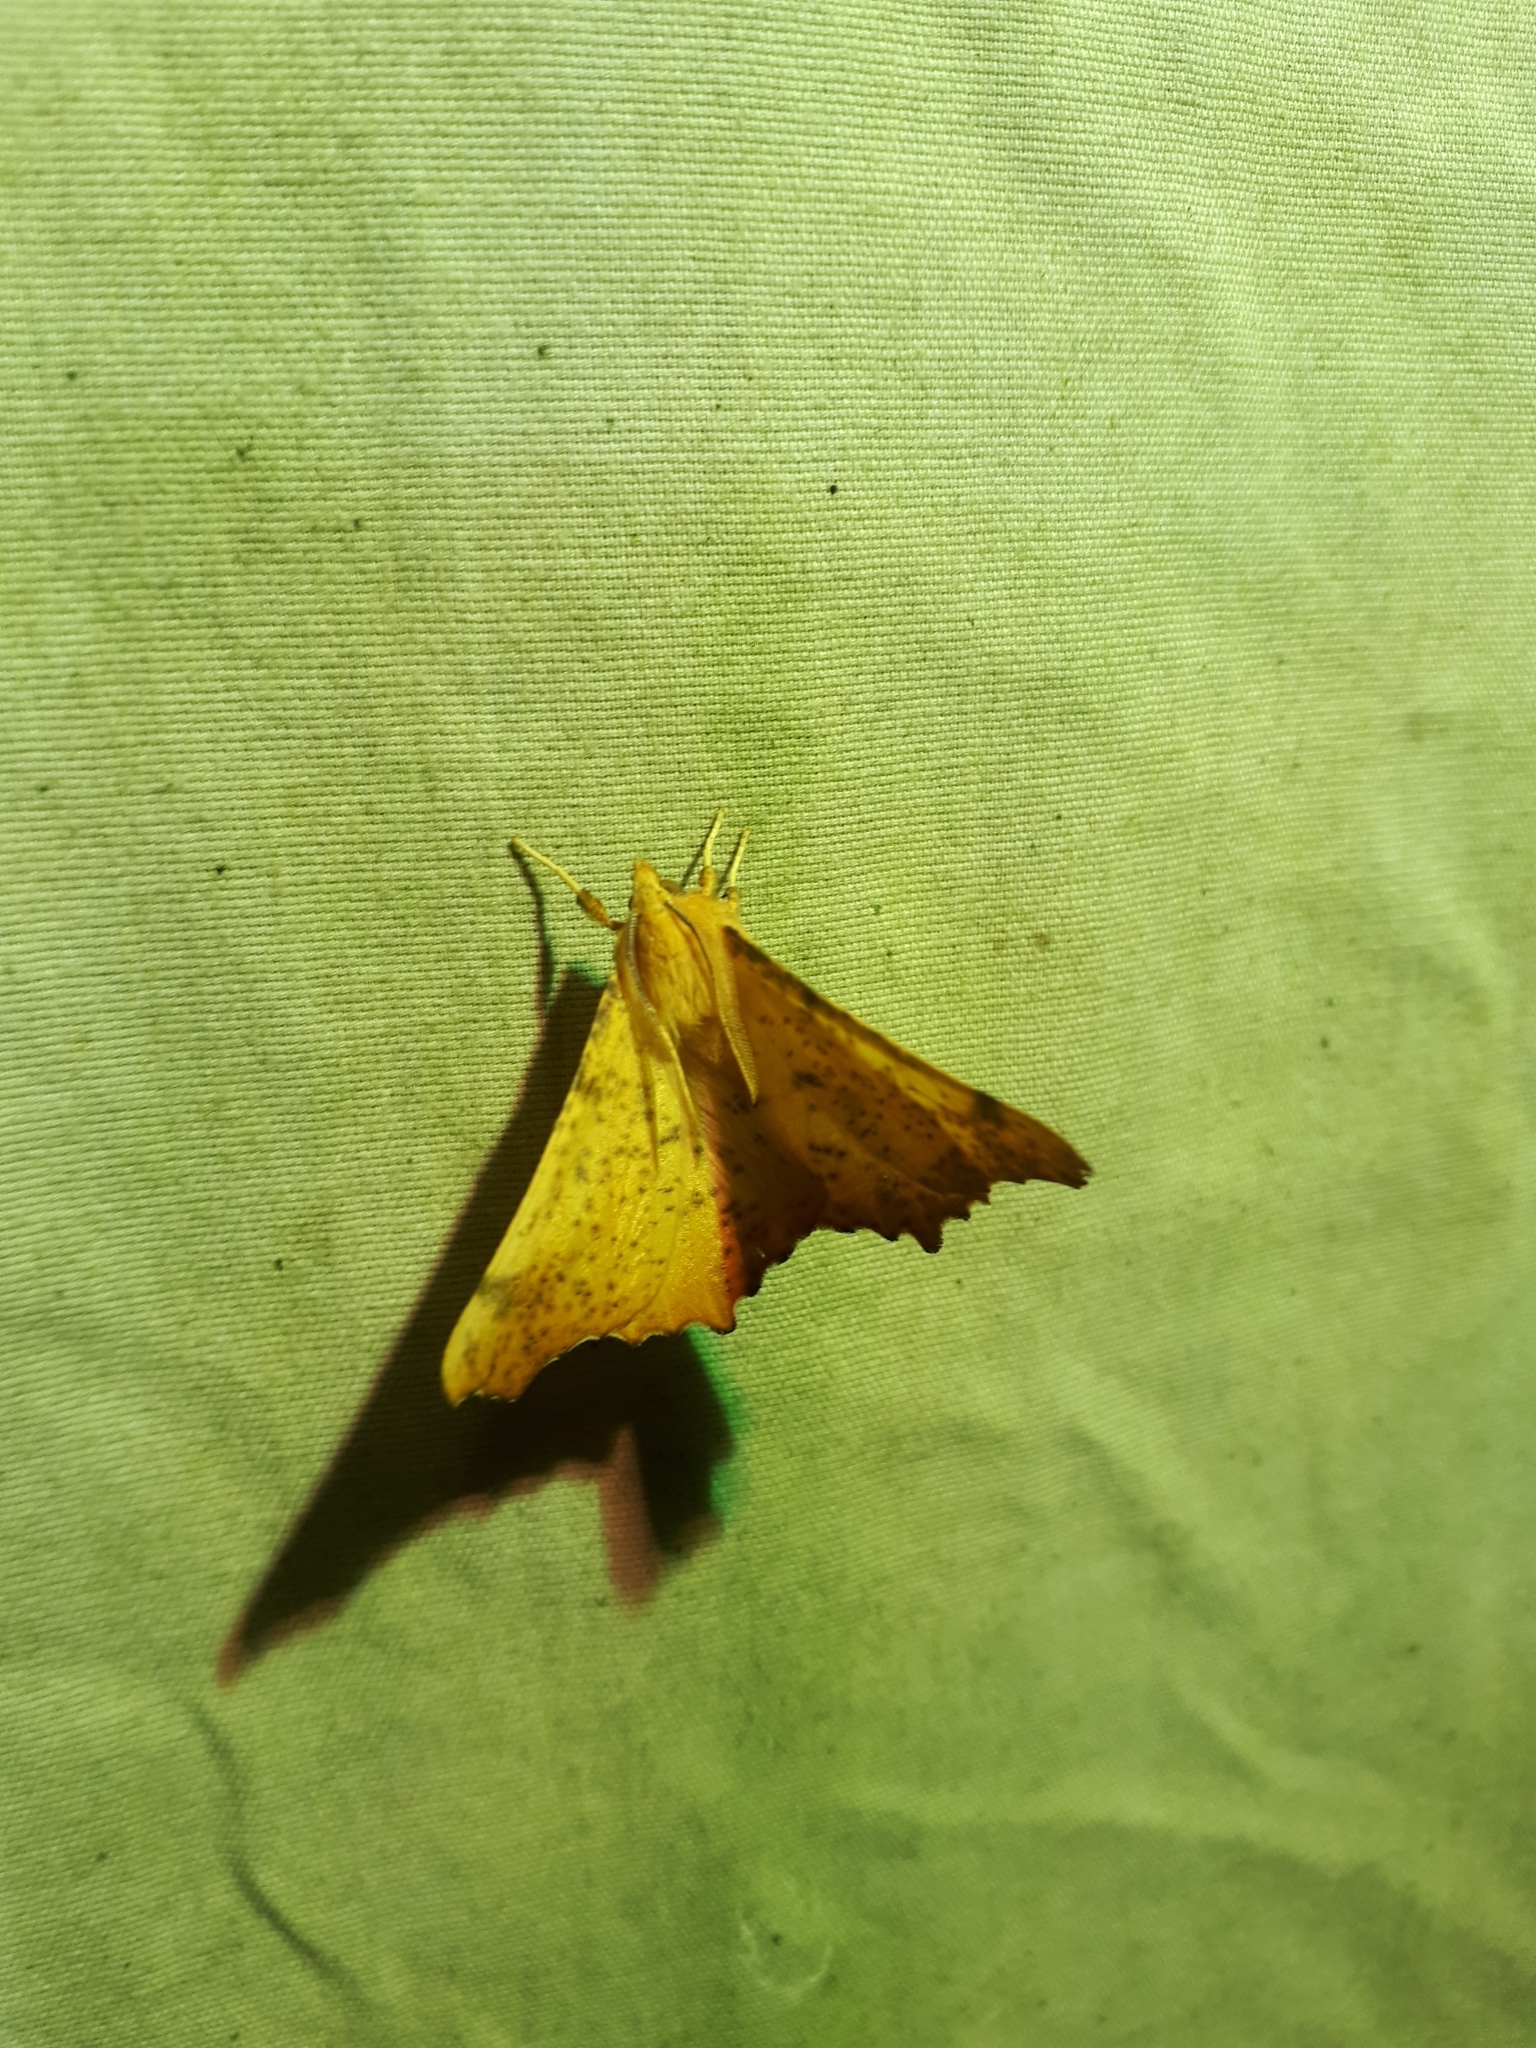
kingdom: Animalia
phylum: Arthropoda
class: Insecta
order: Lepidoptera
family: Geometridae
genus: Ennomos
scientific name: Ennomos magnaria
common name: Maple spanworm
